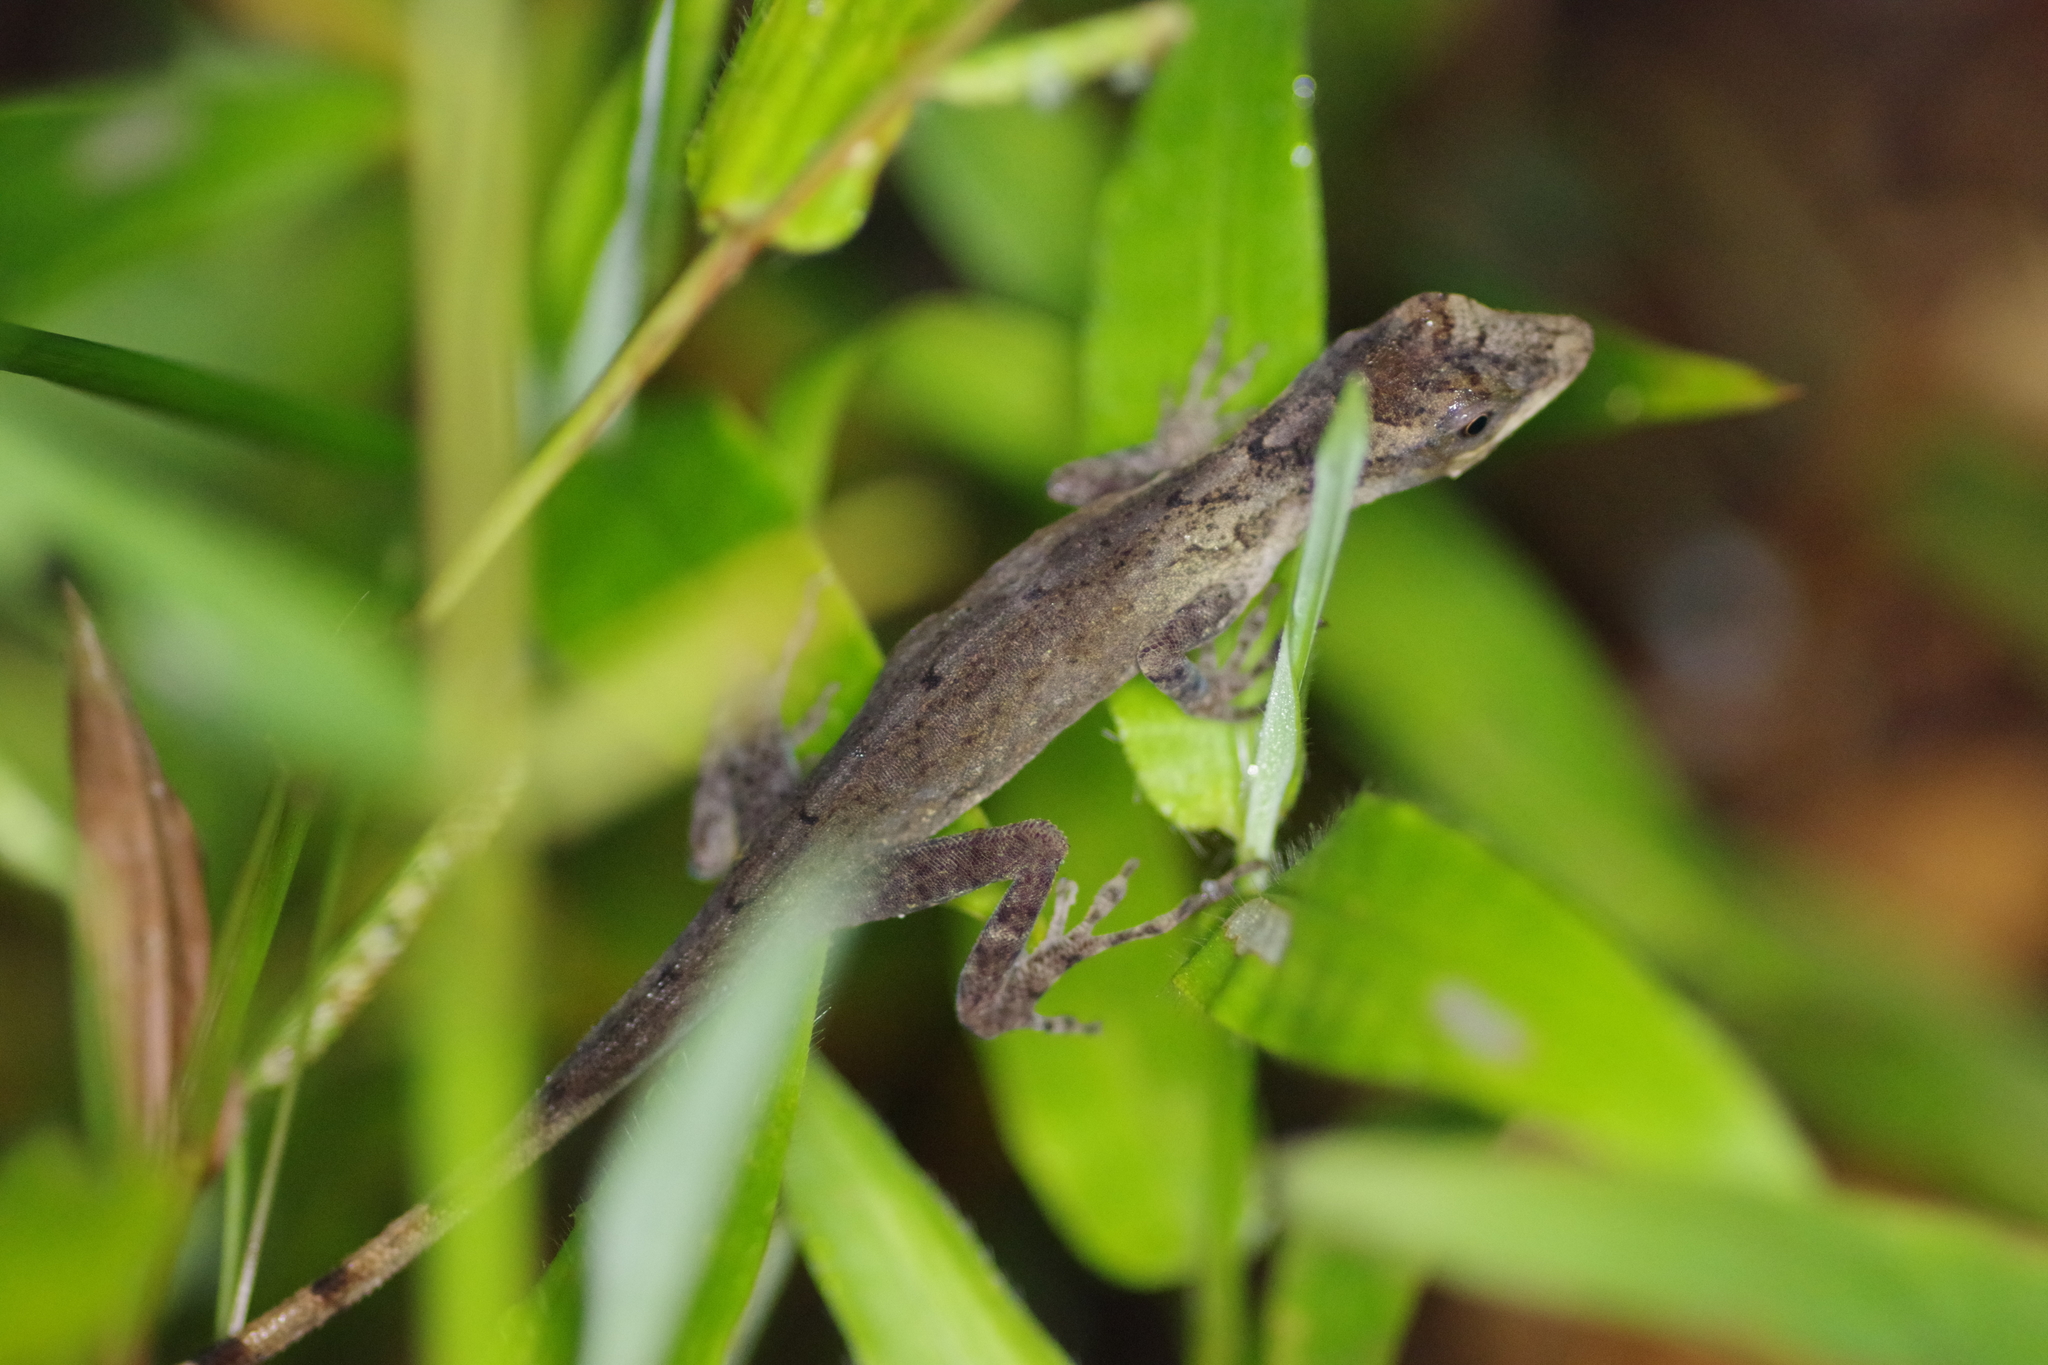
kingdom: Animalia
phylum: Chordata
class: Squamata
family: Dactyloidae
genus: Anolis
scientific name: Anolis limifrons
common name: Border anole
